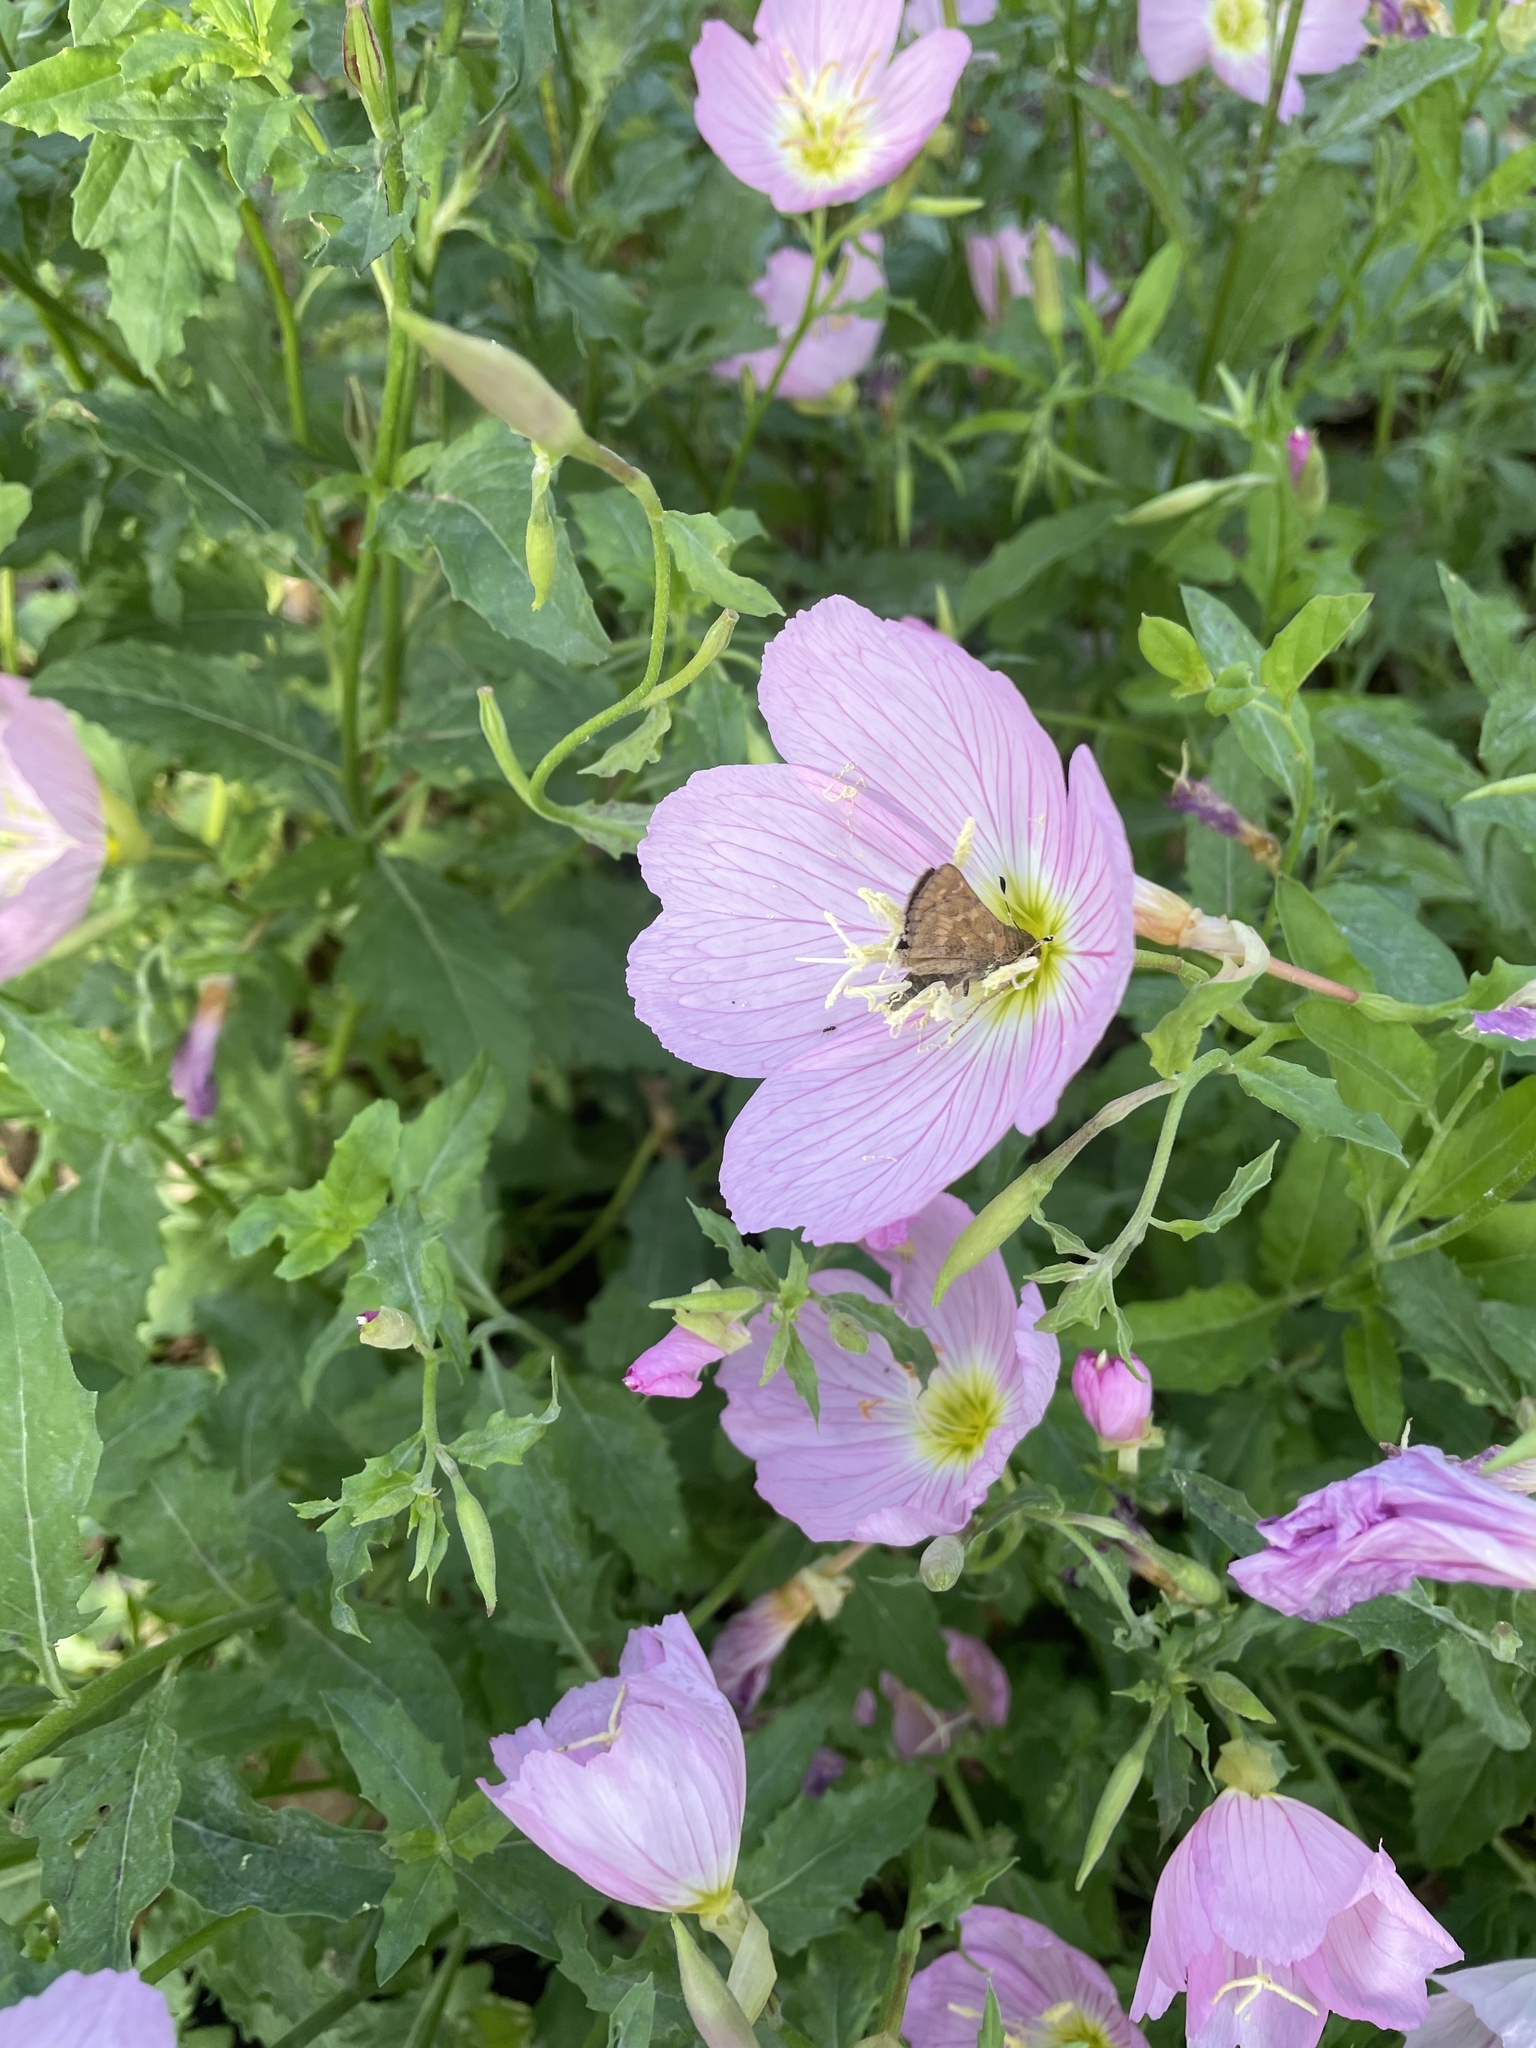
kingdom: Animalia
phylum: Arthropoda
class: Insecta
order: Lepidoptera
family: Hesperiidae
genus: Atalopedes
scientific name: Atalopedes
